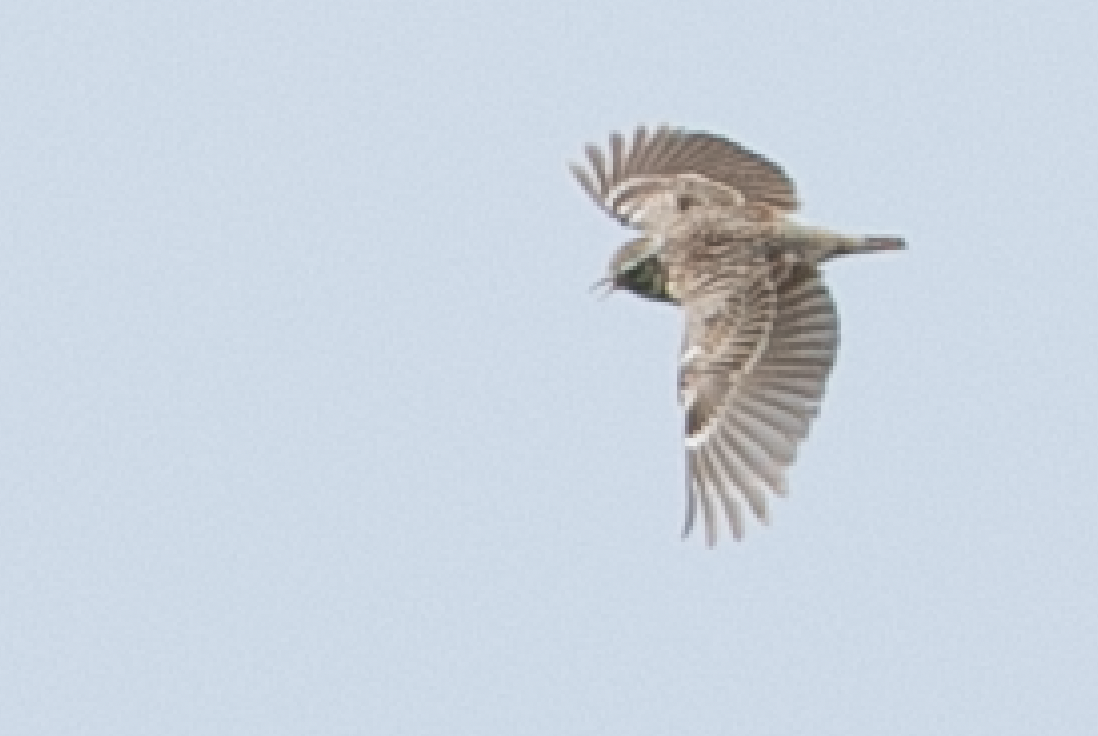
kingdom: Animalia
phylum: Chordata
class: Aves
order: Passeriformes
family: Alaudidae
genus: Lullula
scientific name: Lullula arborea
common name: Woodlark
